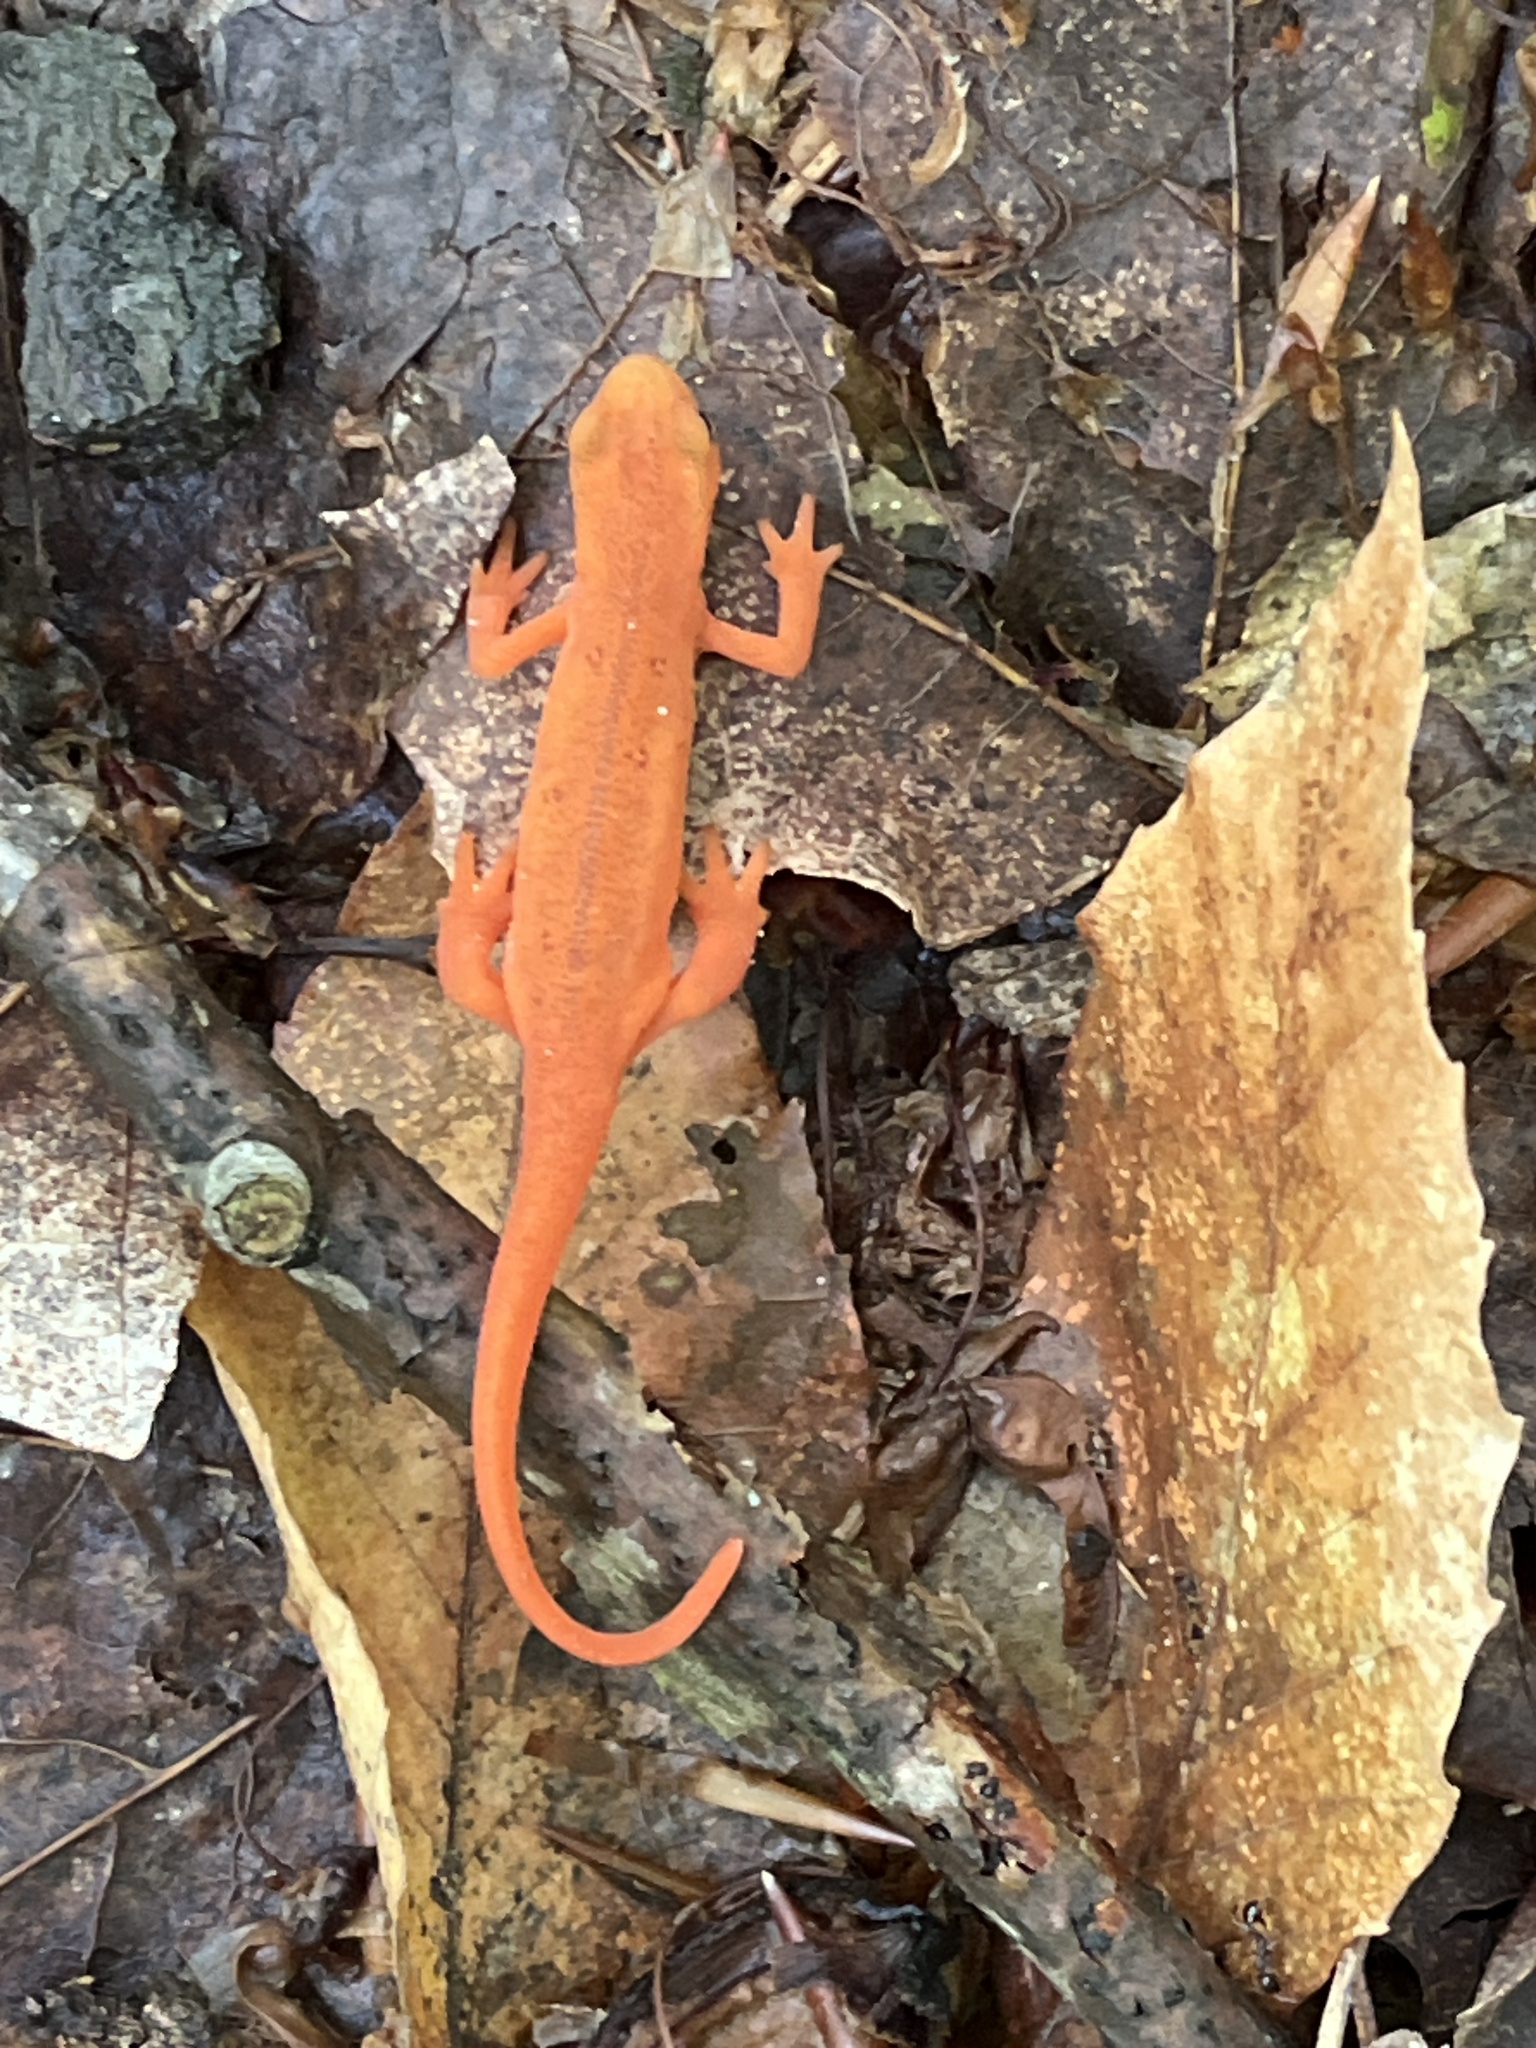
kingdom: Animalia
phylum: Chordata
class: Amphibia
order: Caudata
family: Salamandridae
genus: Notophthalmus
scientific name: Notophthalmus viridescens
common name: Eastern newt
